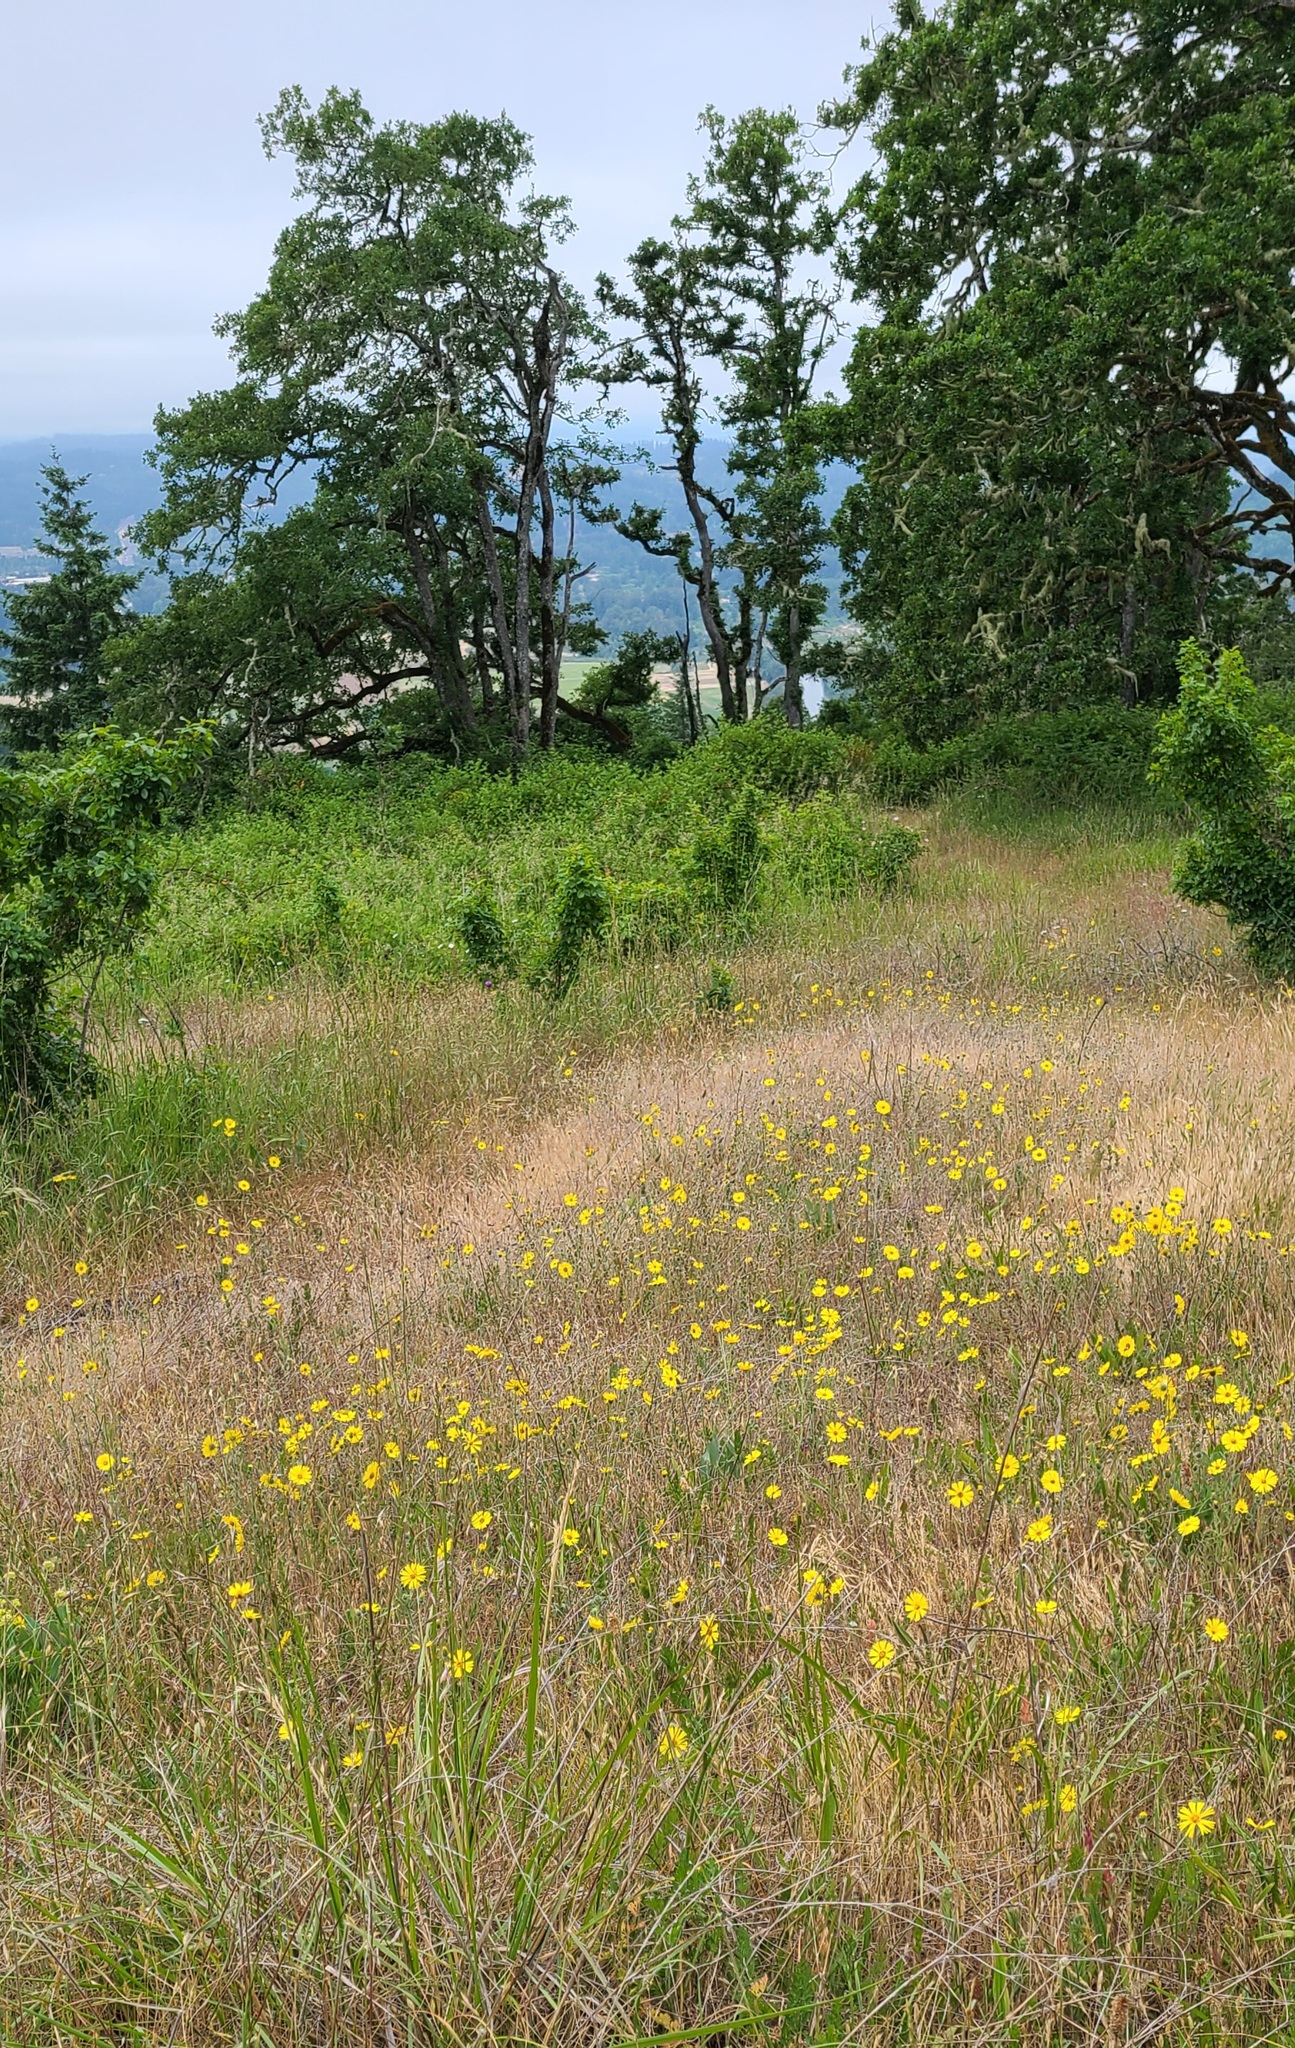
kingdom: Plantae
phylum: Tracheophyta
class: Magnoliopsida
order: Asterales
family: Asteraceae
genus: Madia
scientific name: Madia elegans
